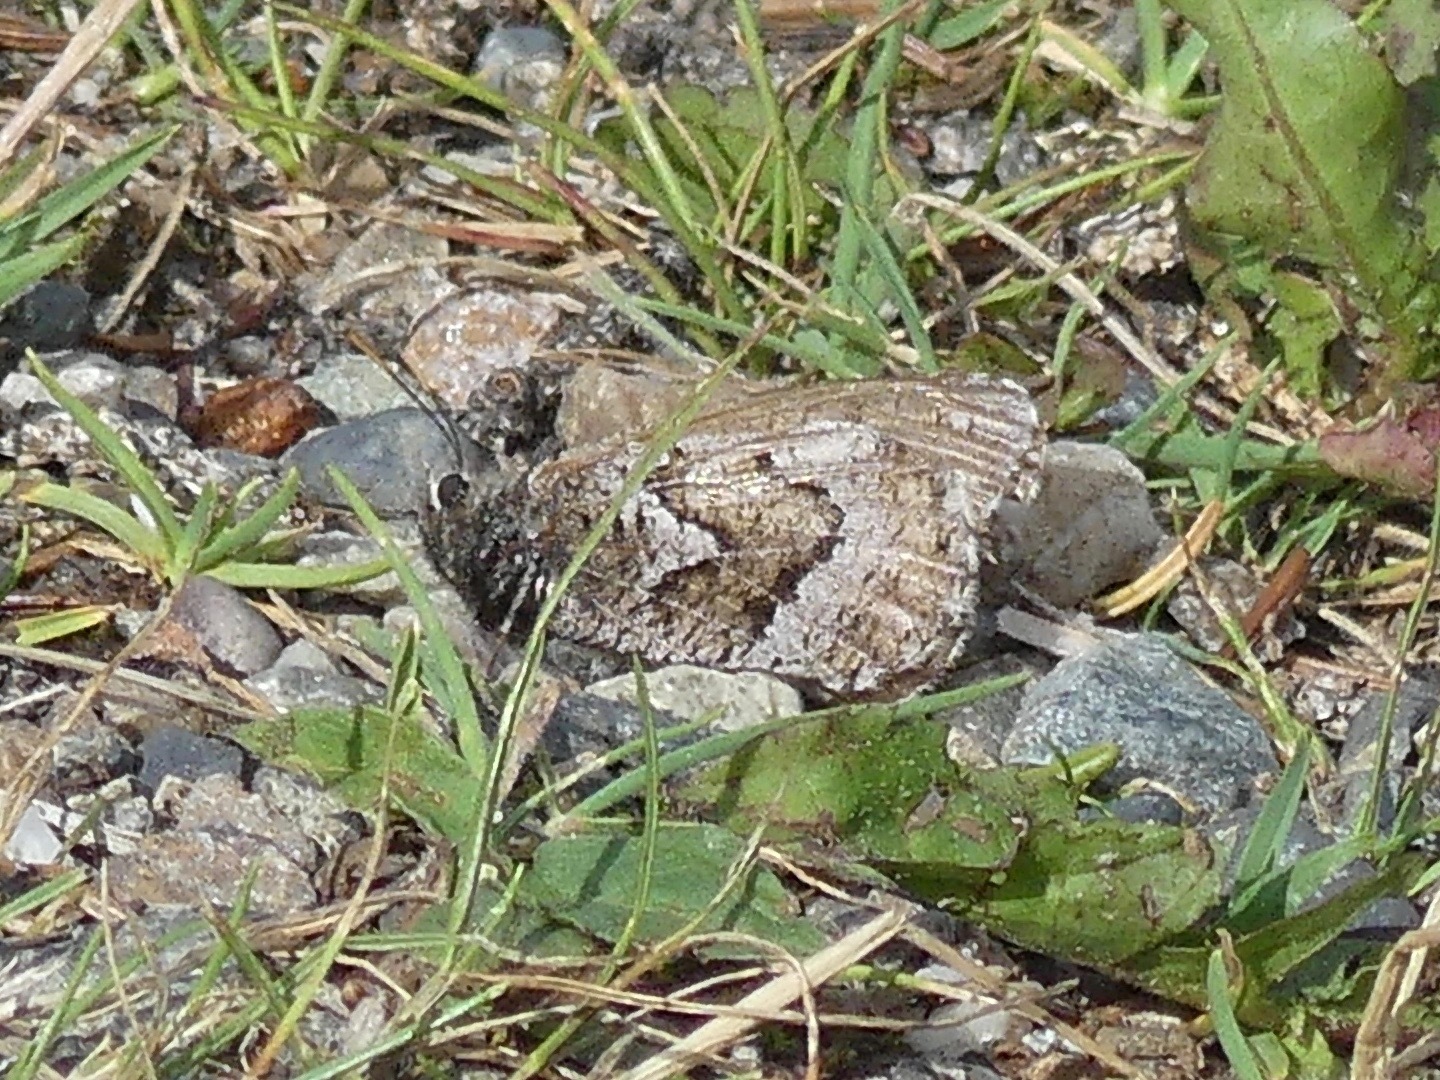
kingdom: Animalia
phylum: Arthropoda
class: Insecta
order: Lepidoptera
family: Nymphalidae
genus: Oeneis
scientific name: Oeneis bore
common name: Arctic grayling
